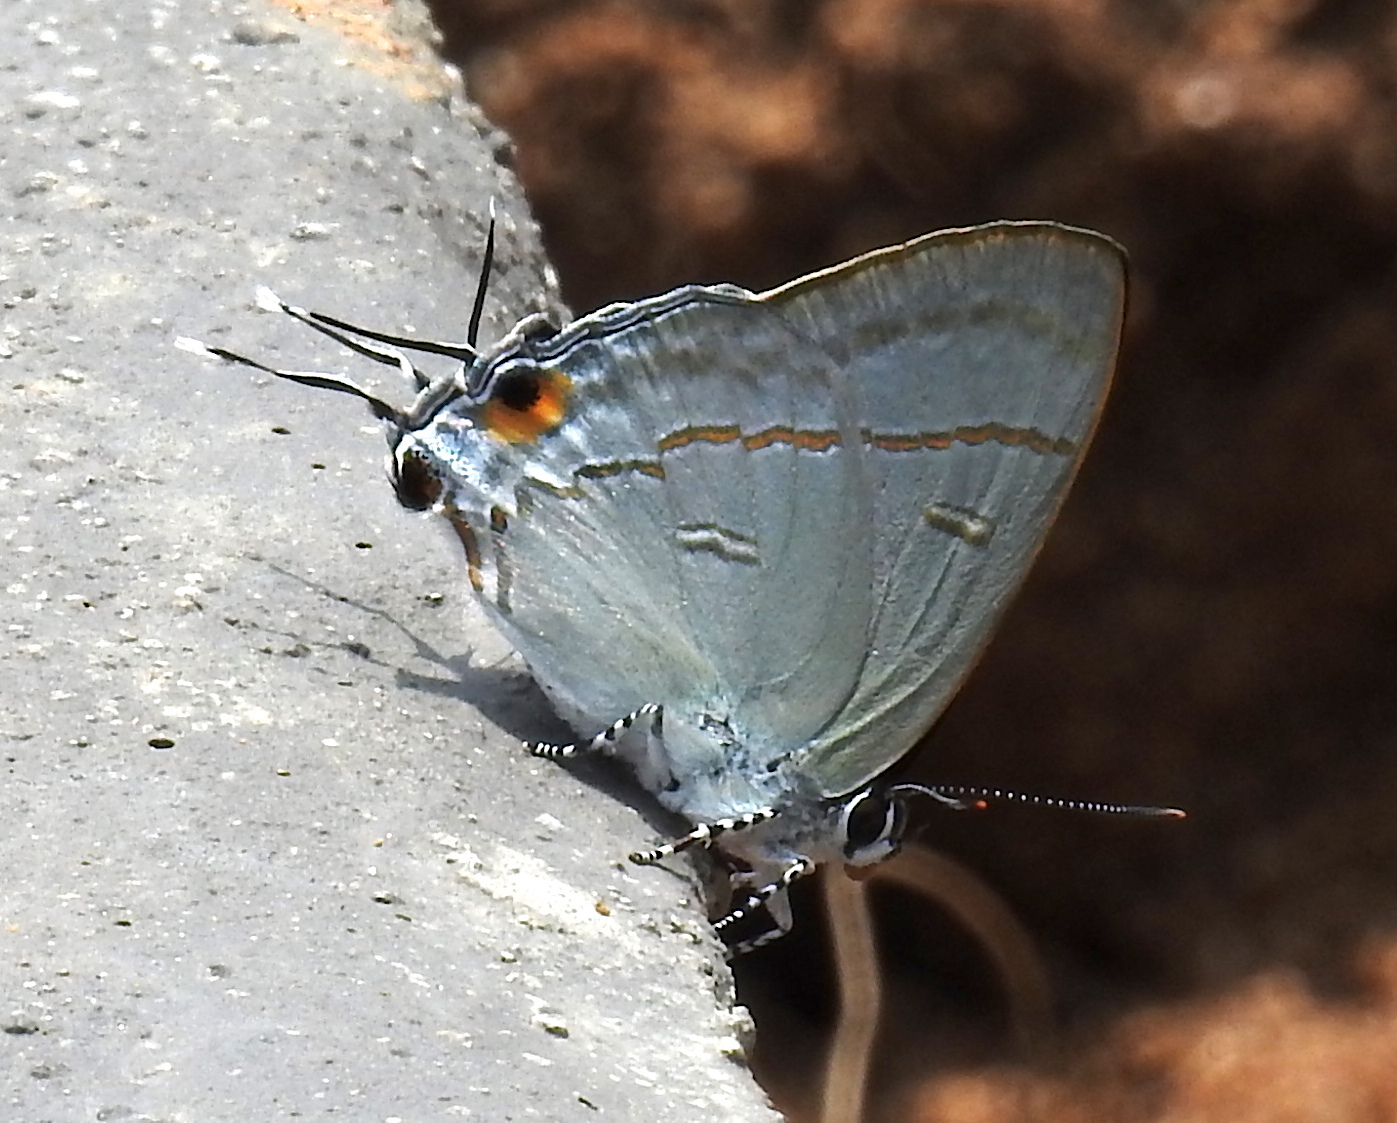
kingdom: Animalia
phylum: Arthropoda
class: Insecta
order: Lepidoptera
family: Lycaenidae
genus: Hypolycaena
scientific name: Hypolycaena erylus
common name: Common tit
